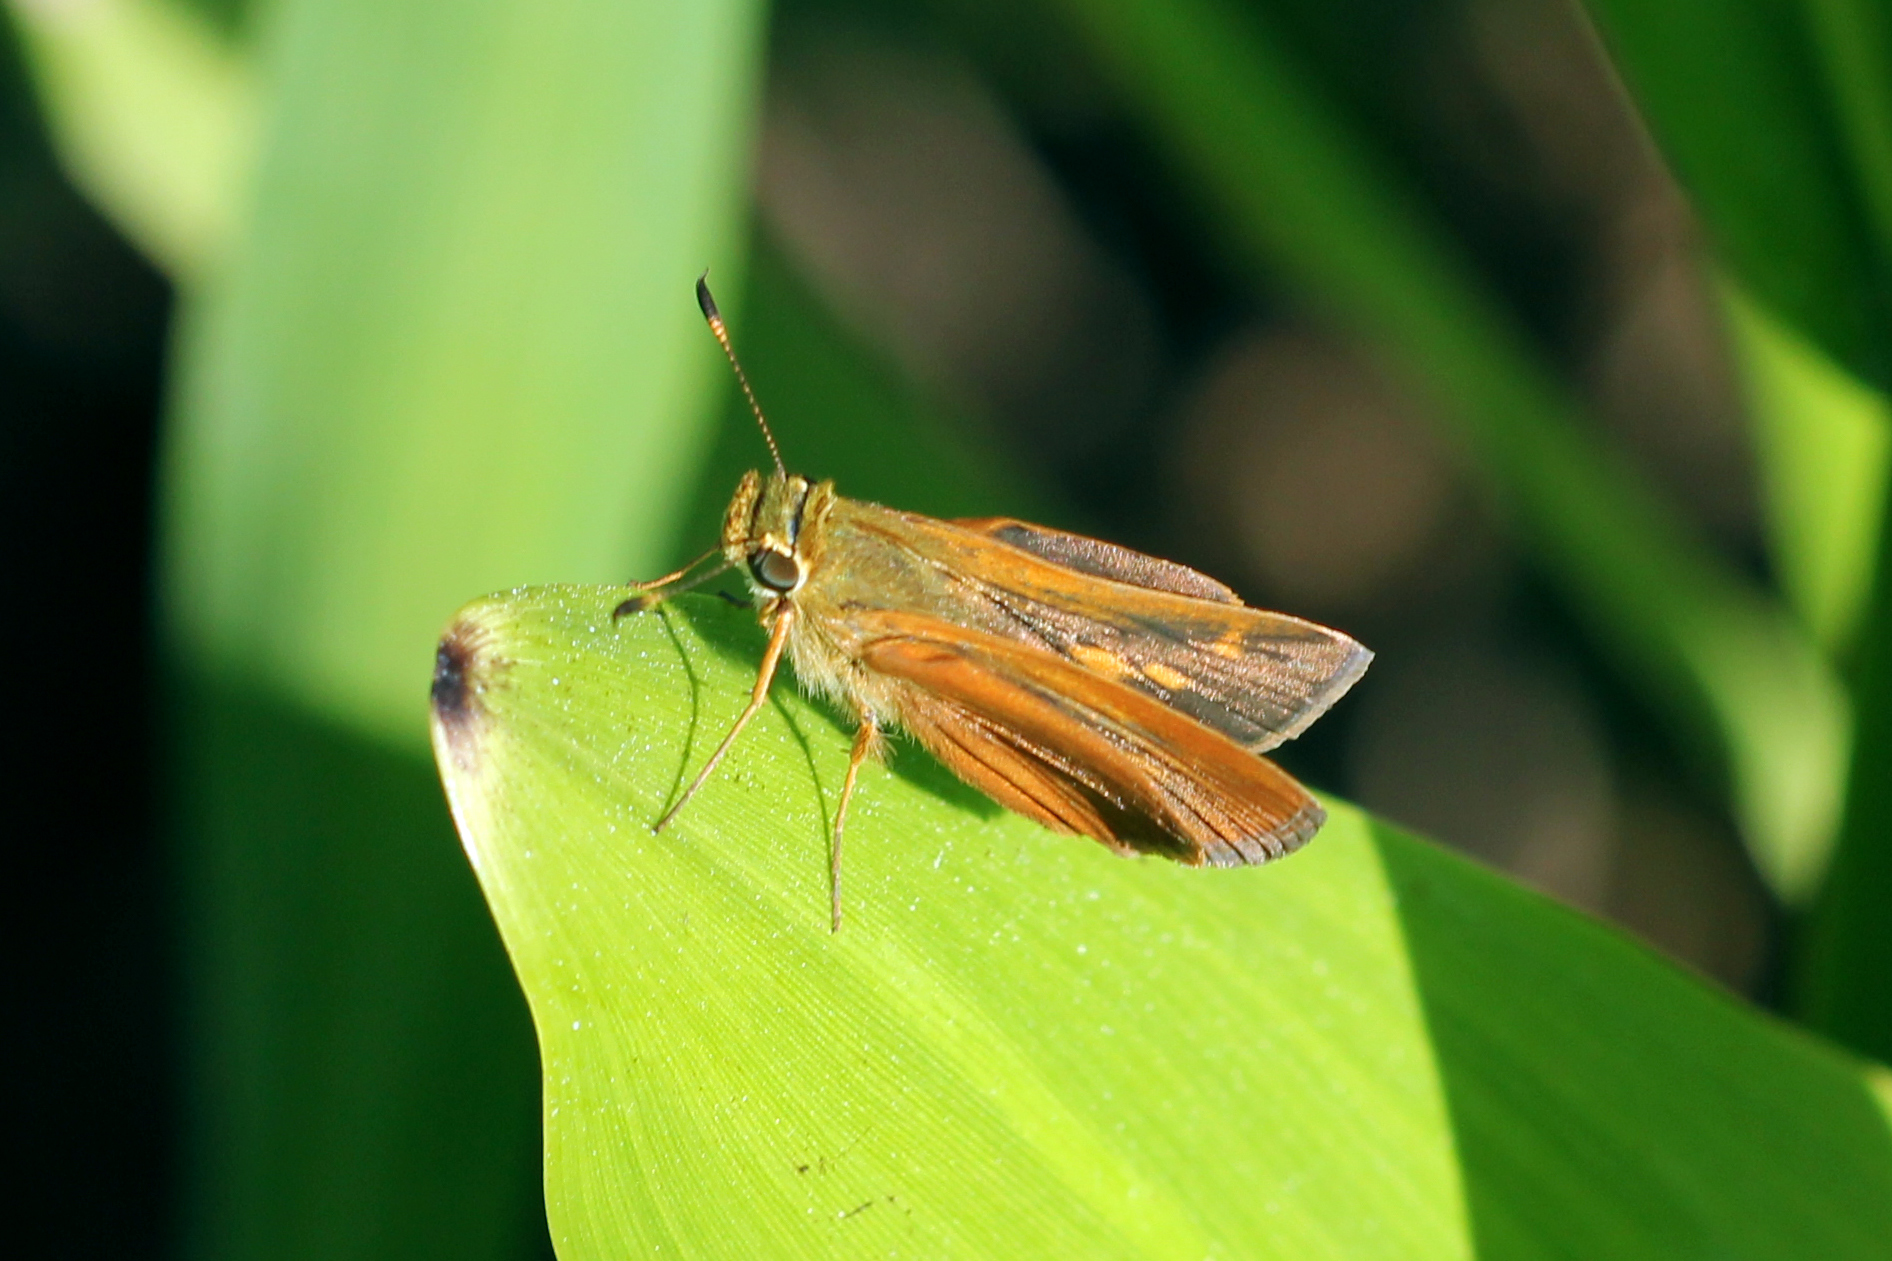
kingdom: Animalia
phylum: Arthropoda
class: Insecta
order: Lepidoptera
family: Hesperiidae
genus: Polites
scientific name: Polites otho
